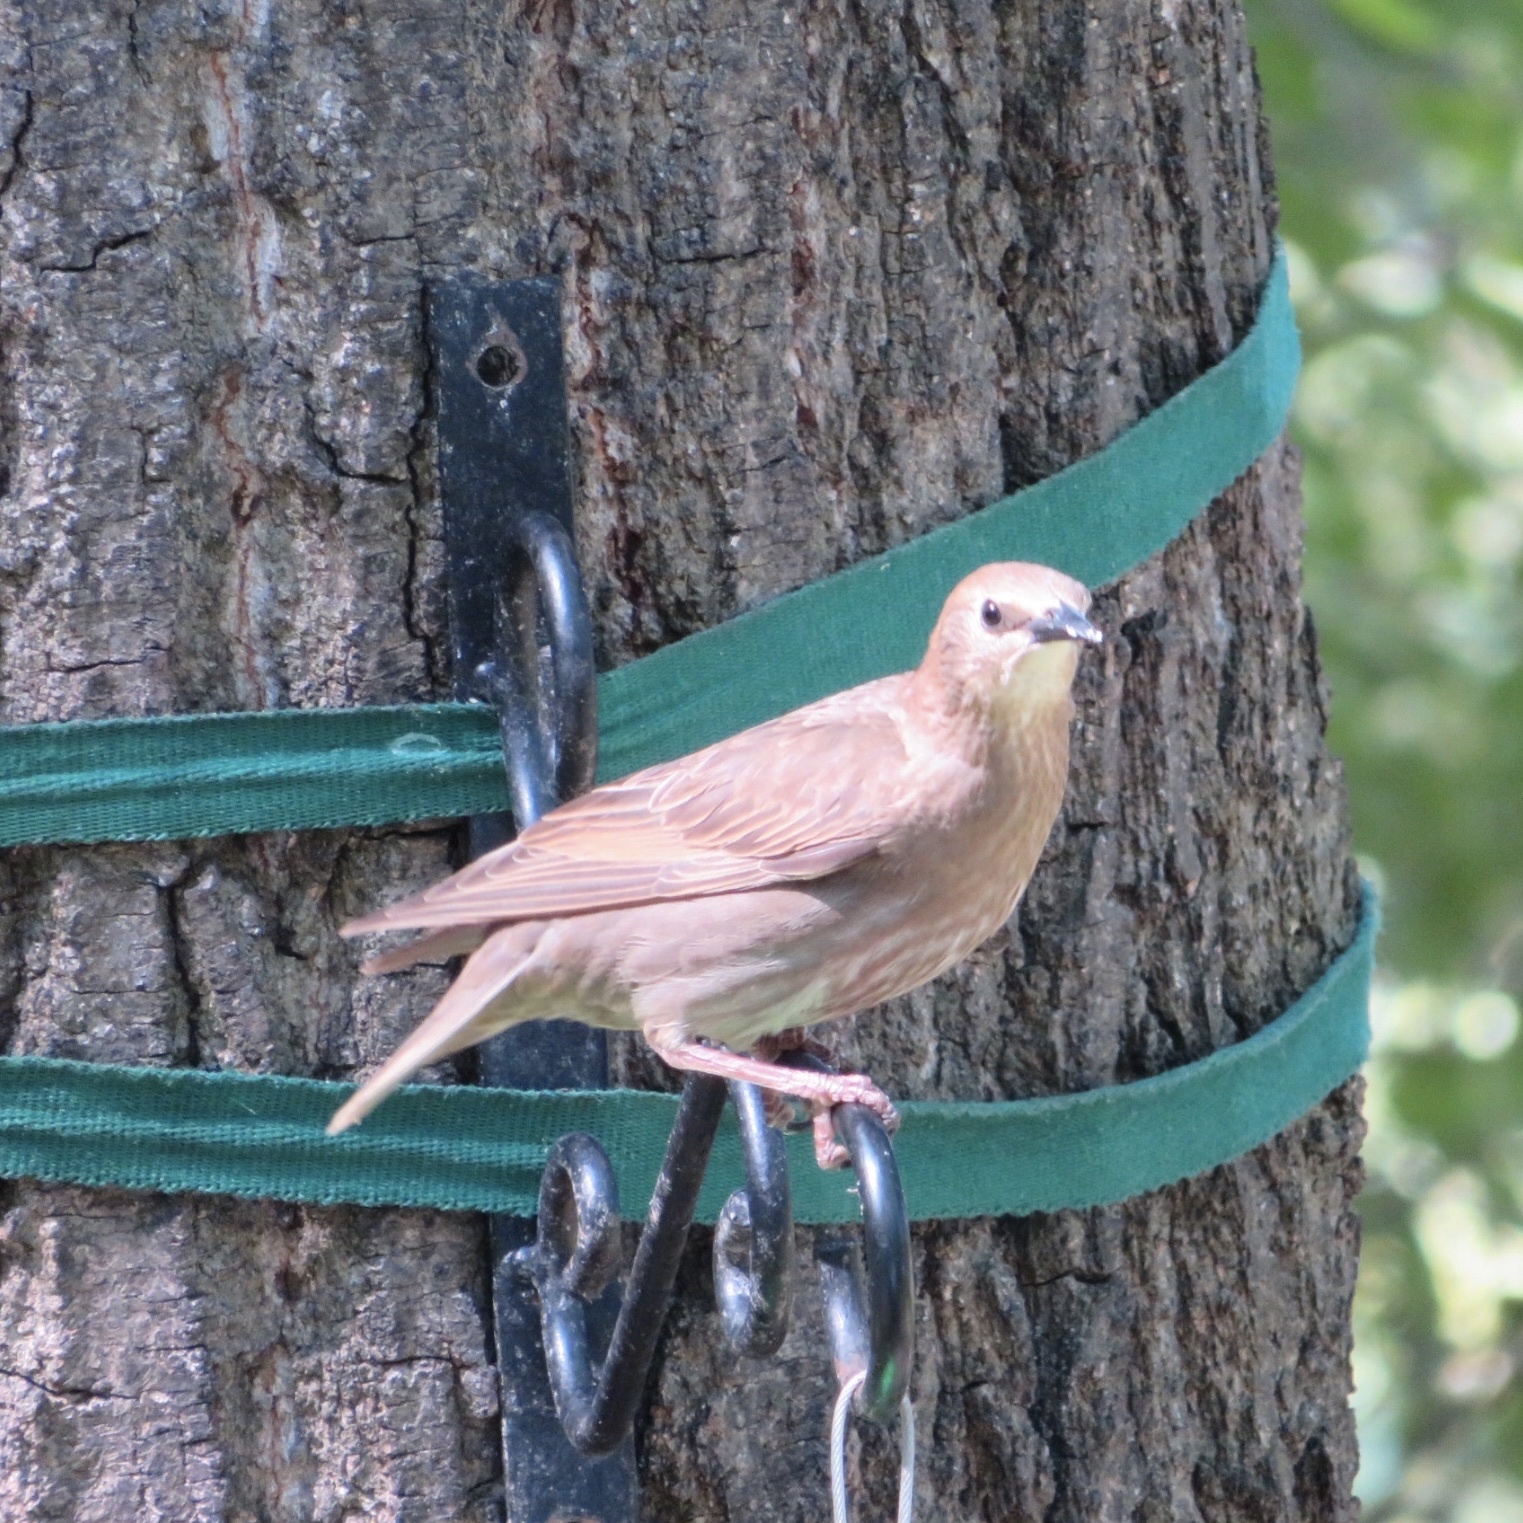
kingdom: Animalia
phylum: Chordata
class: Aves
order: Passeriformes
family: Sturnidae
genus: Sturnus
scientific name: Sturnus vulgaris
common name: Common starling
